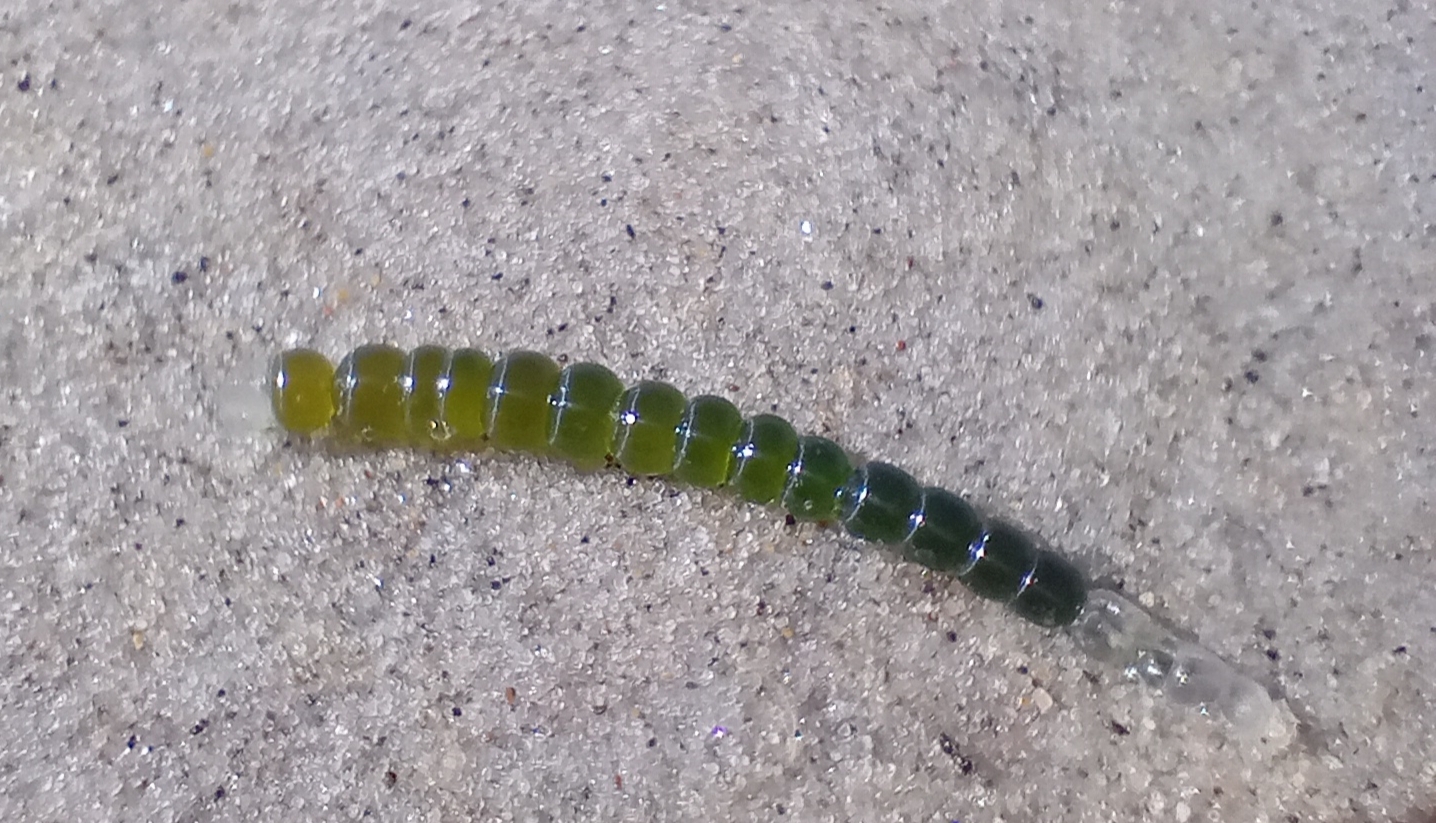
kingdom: Plantae
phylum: Chlorophyta
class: Ulvophyceae
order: Cladophorales
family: Cladophoraceae
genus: Chaetomorpha
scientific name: Chaetomorpha coliformis
